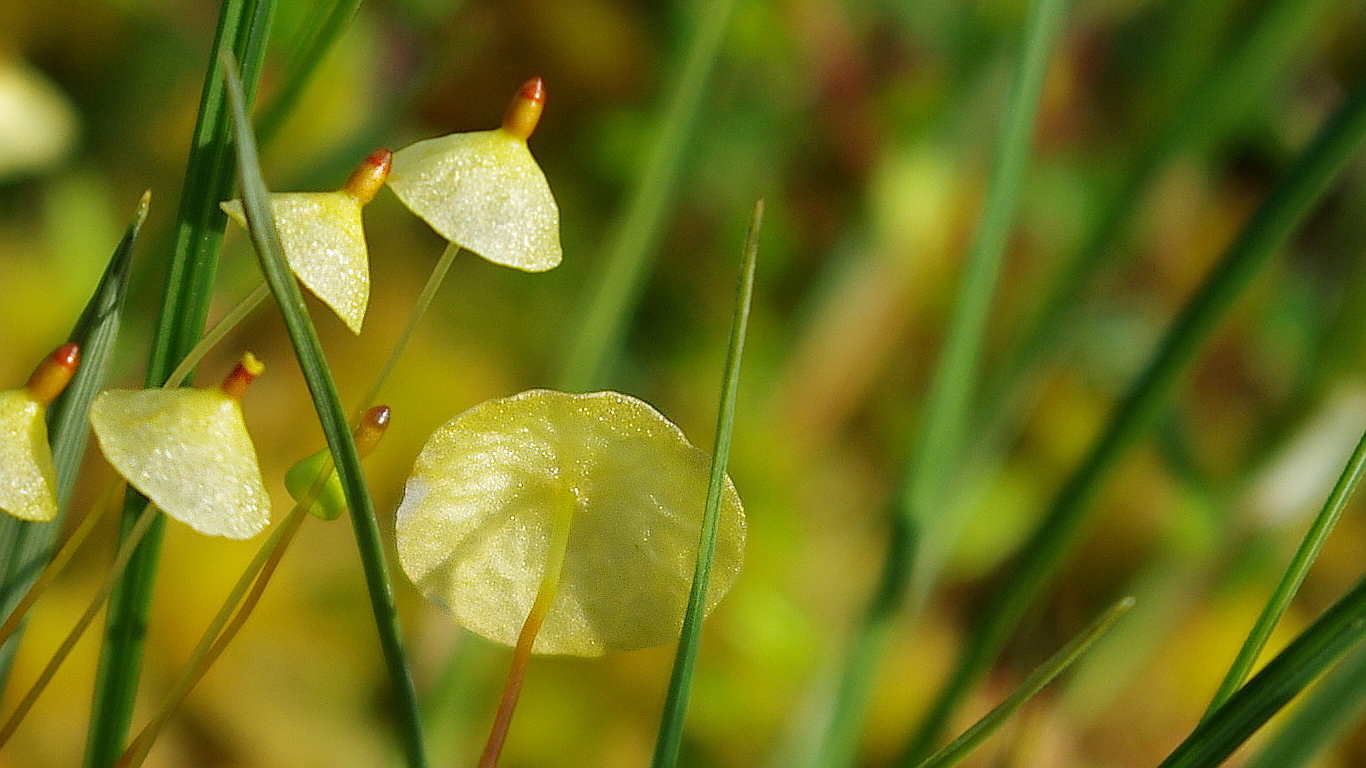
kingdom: Plantae
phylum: Bryophyta
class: Bryopsida
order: Splachnales
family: Splachnaceae
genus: Splachnum
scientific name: Splachnum luteum
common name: Yellow dung moss
